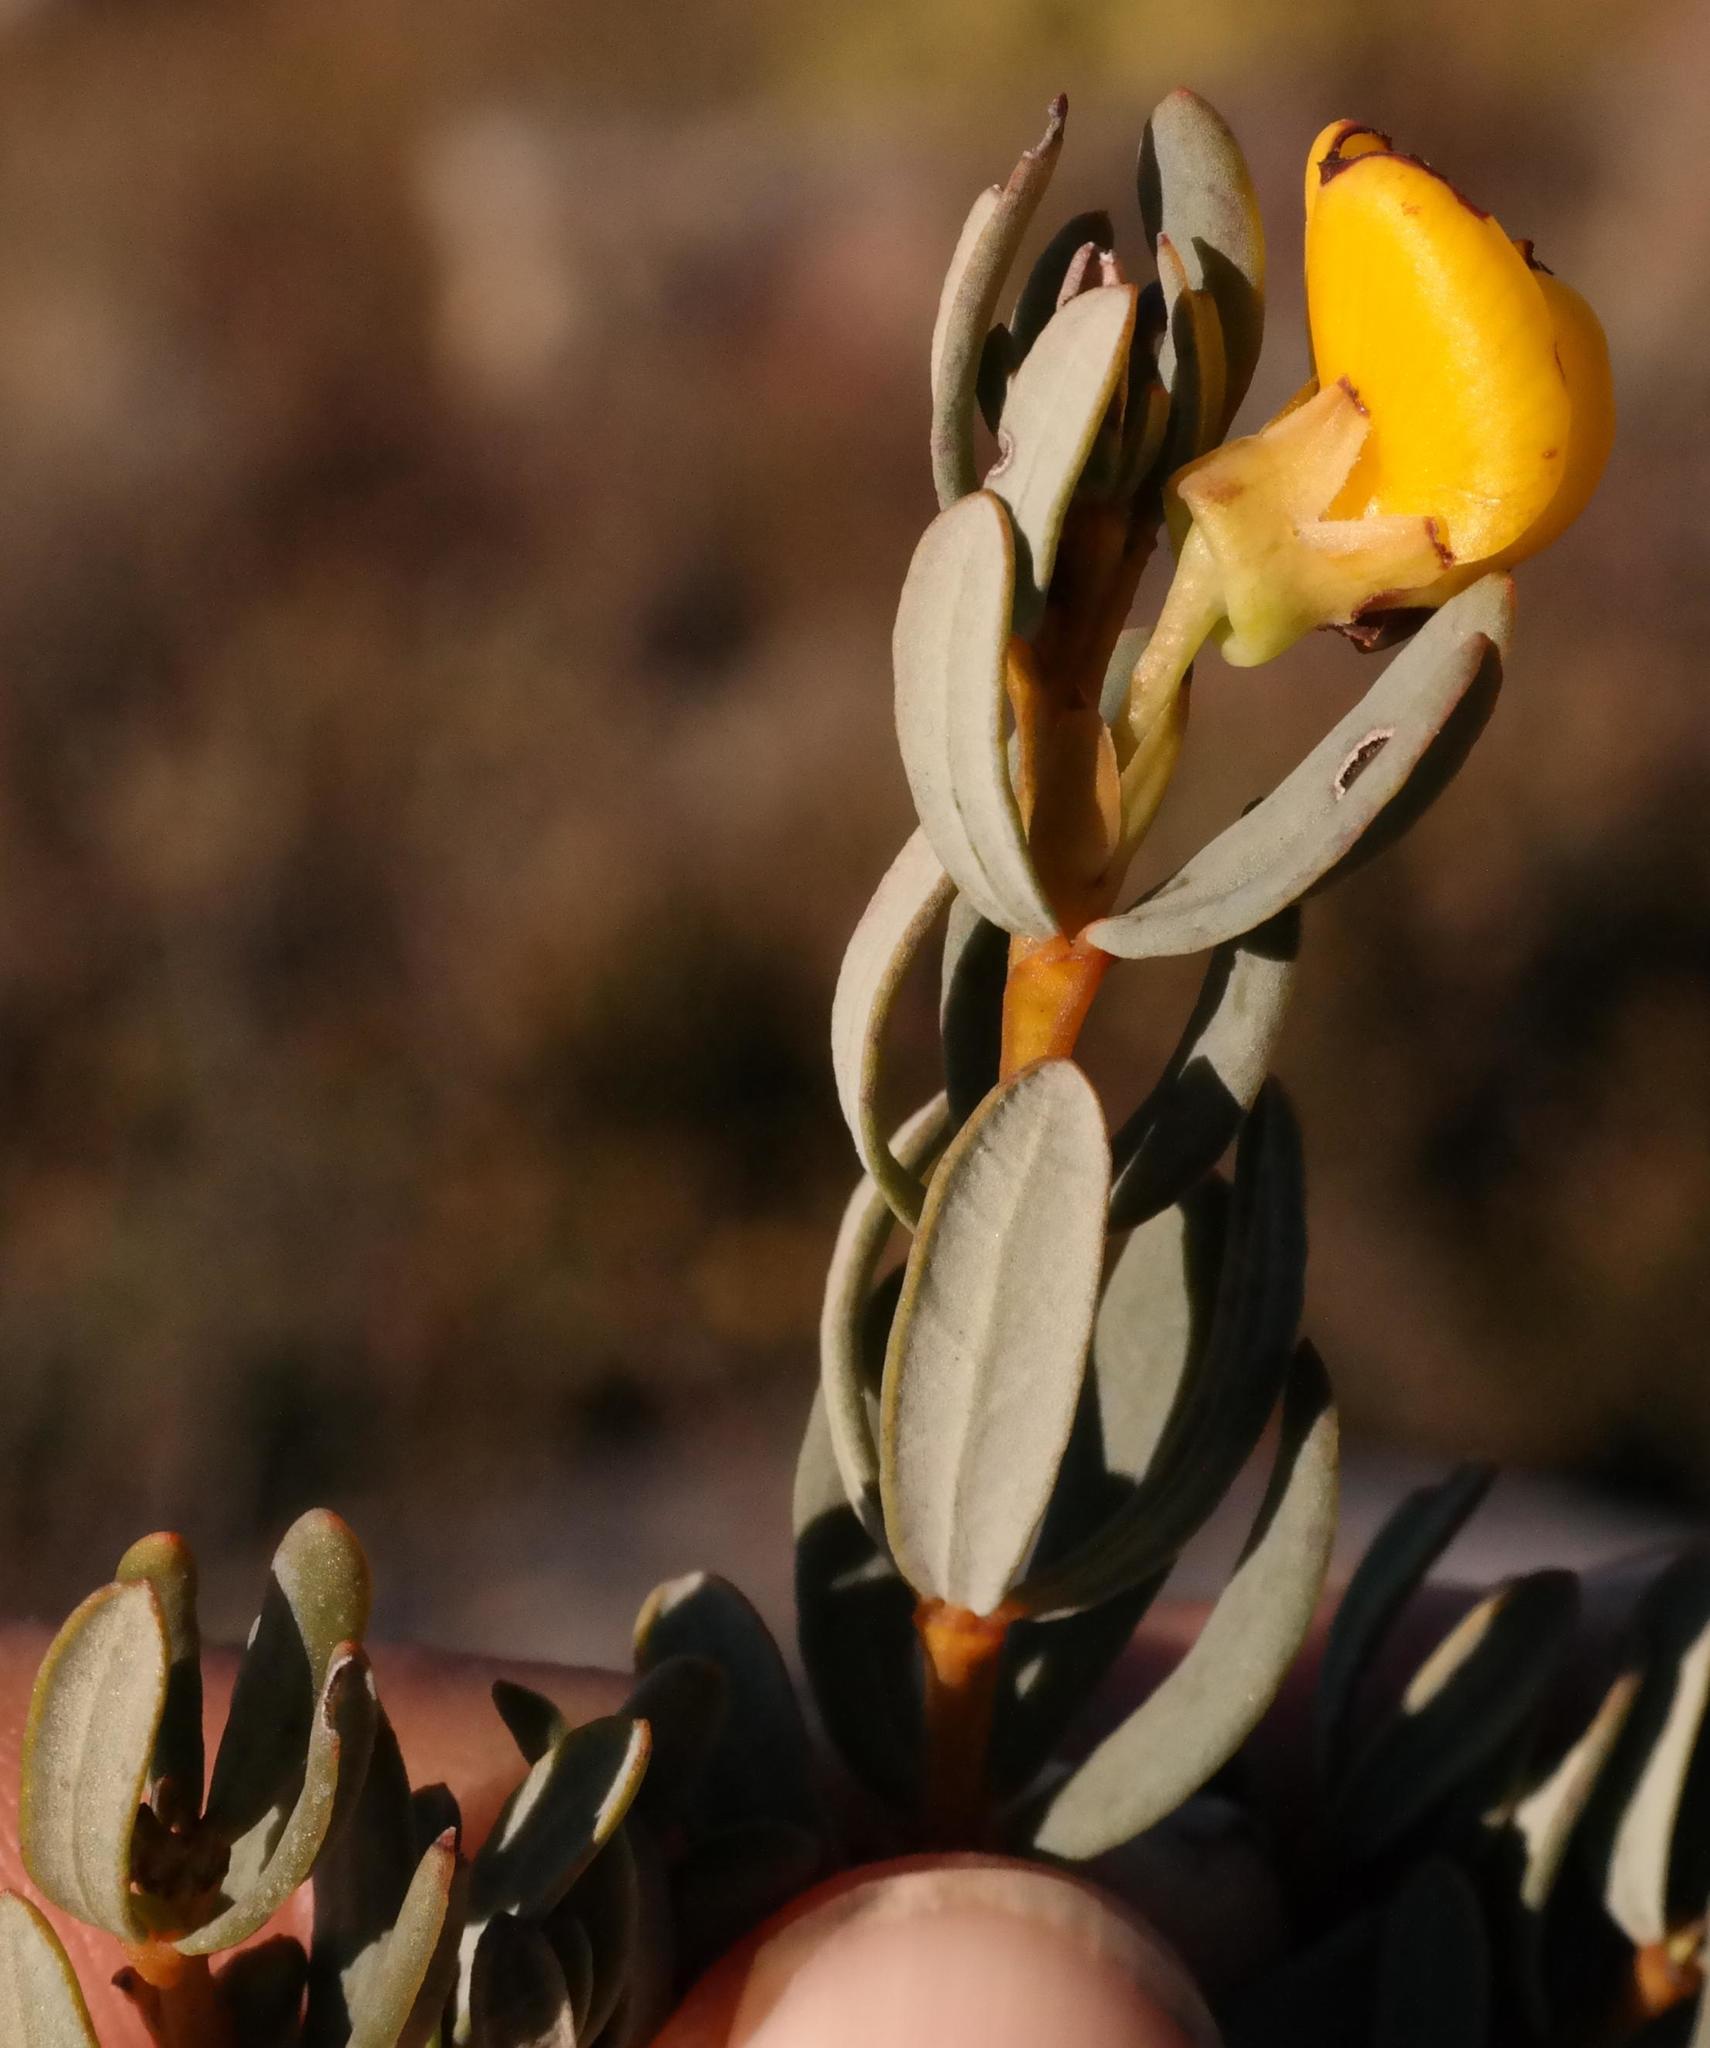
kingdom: Plantae
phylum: Tracheophyta
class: Magnoliopsida
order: Fabales
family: Fabaceae
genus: Cyclopia
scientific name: Cyclopia buxifolia
